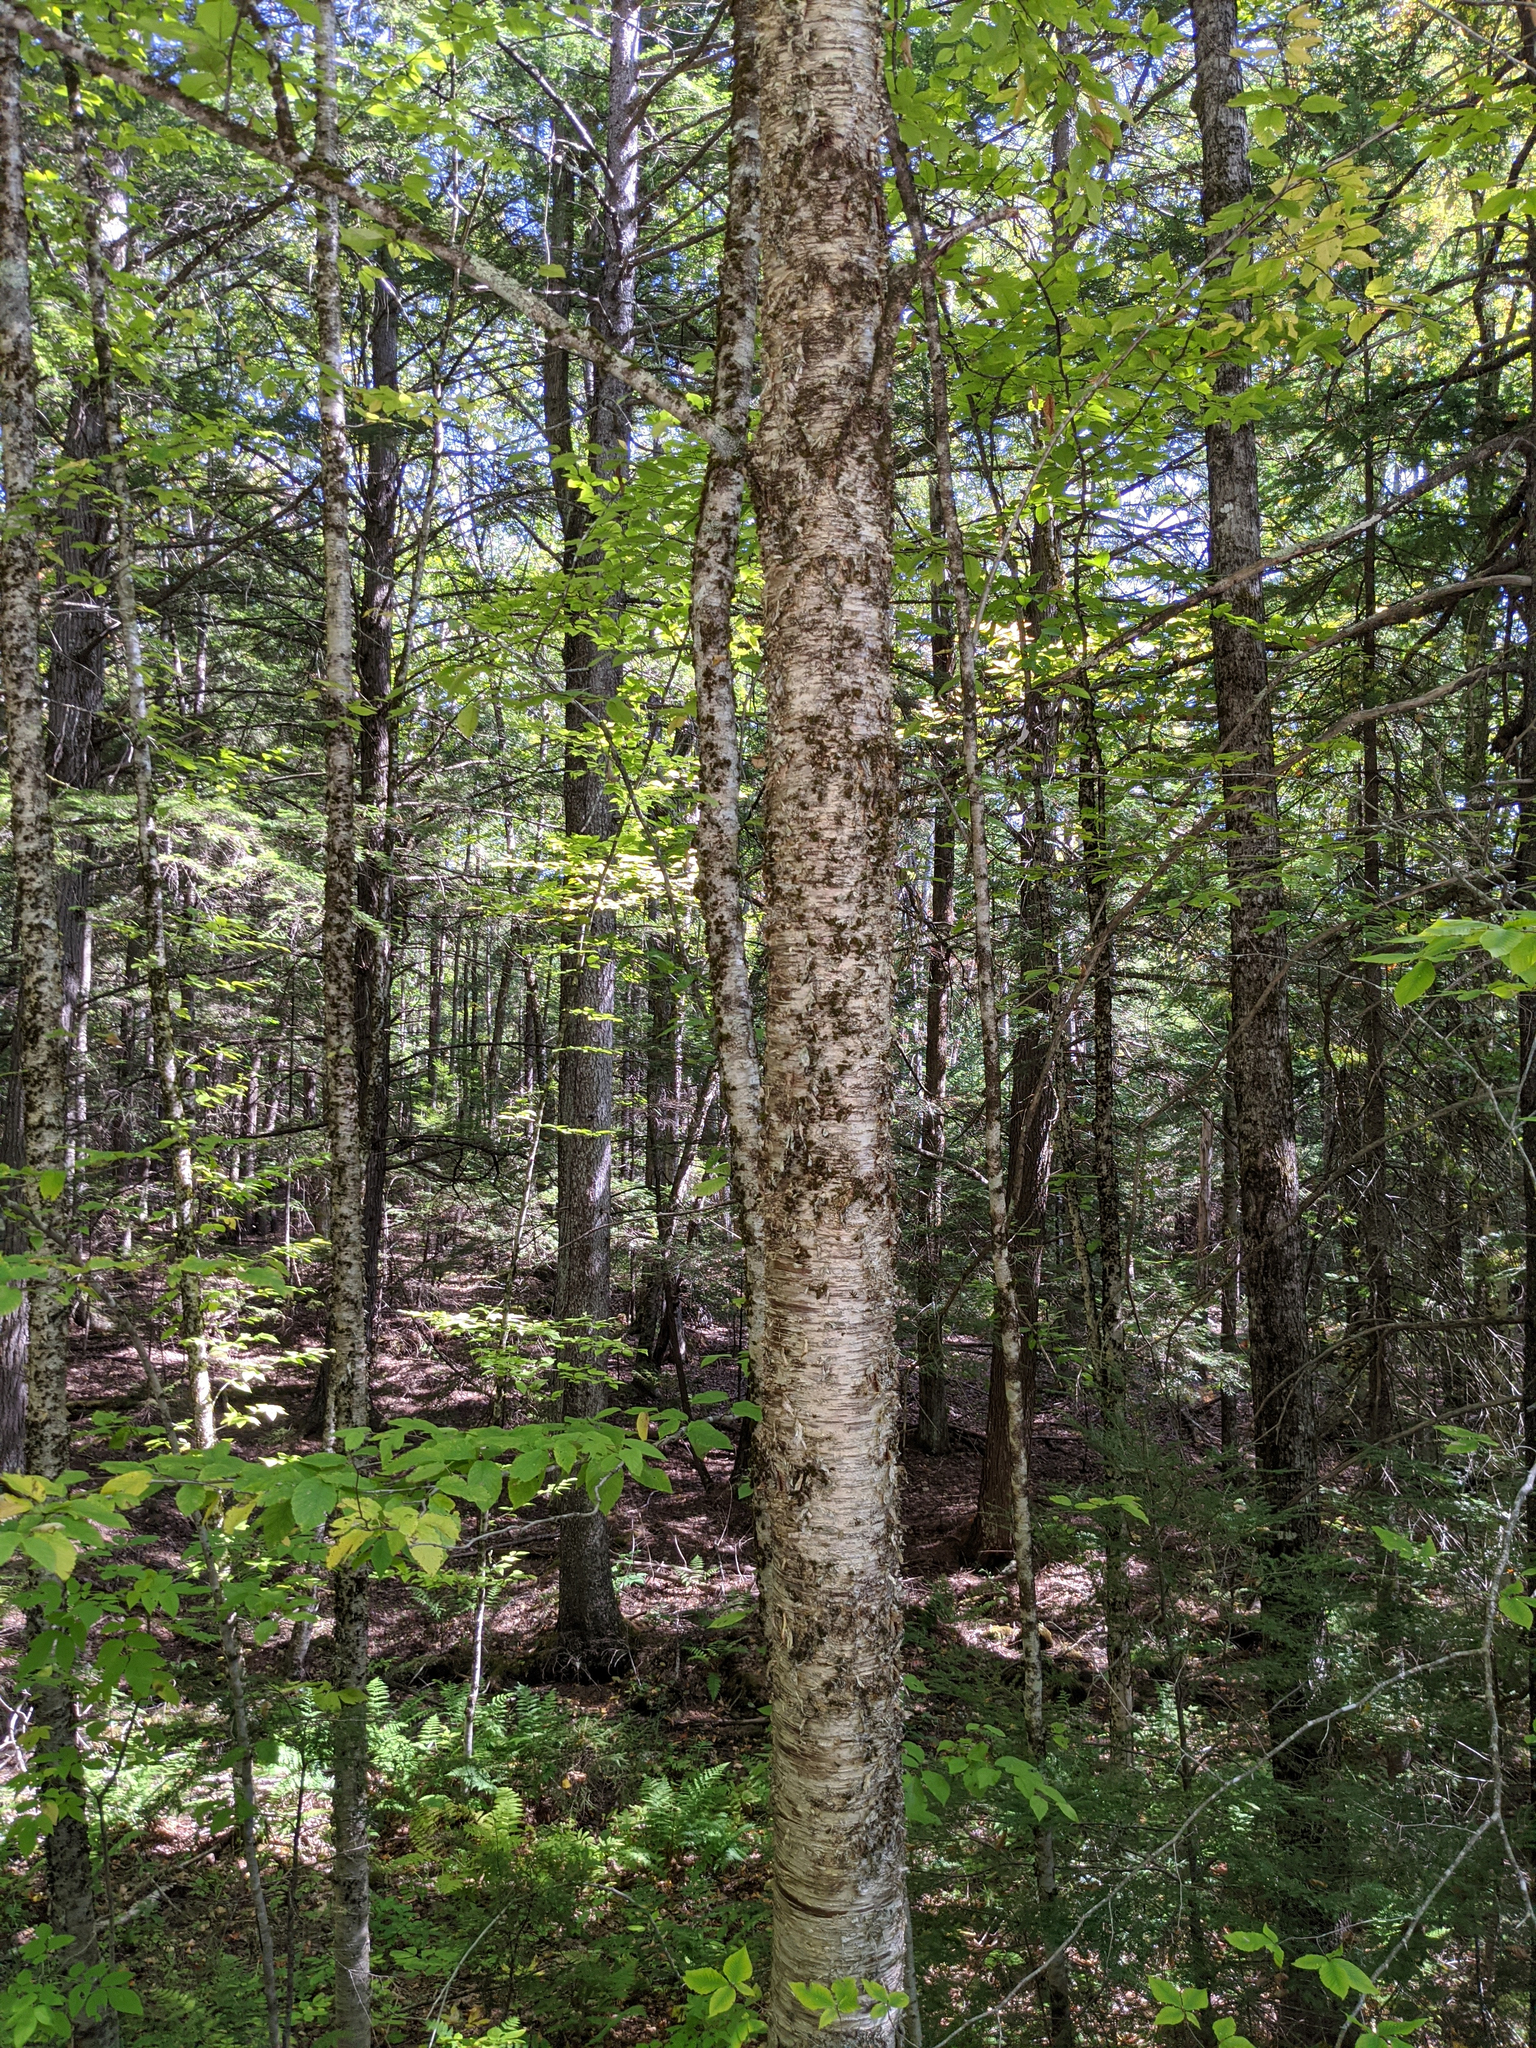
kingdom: Plantae
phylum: Tracheophyta
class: Magnoliopsida
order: Fagales
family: Betulaceae
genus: Betula
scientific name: Betula alleghaniensis
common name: Yellow birch
